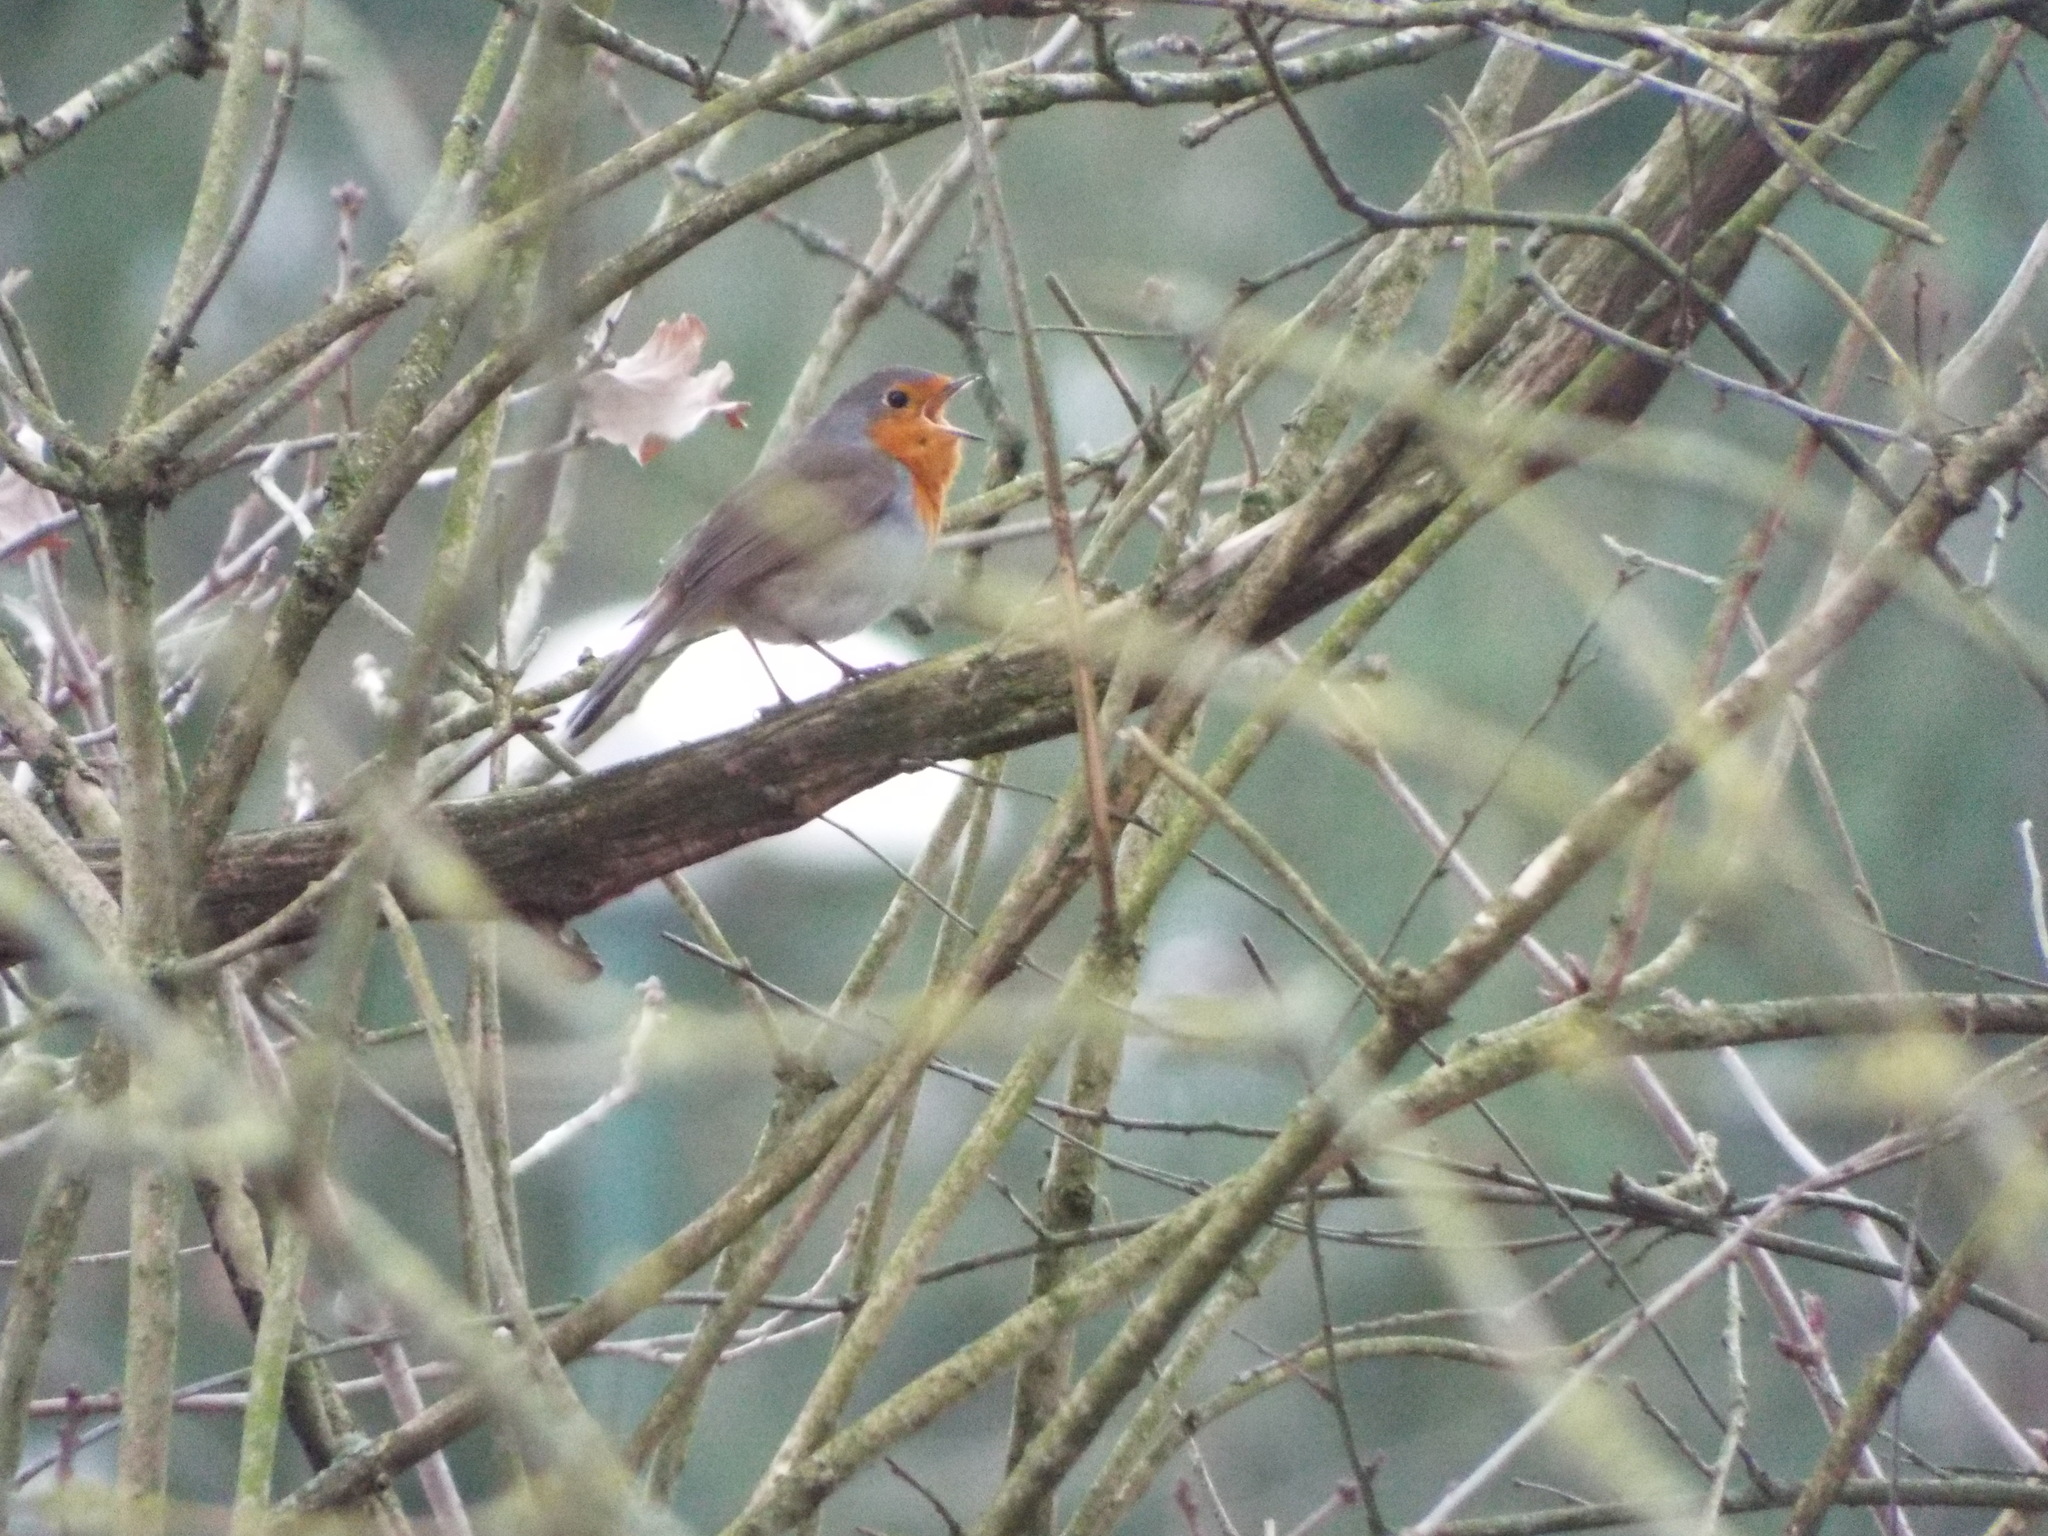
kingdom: Animalia
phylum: Chordata
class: Aves
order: Passeriformes
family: Muscicapidae
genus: Erithacus
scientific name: Erithacus rubecula
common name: European robin
